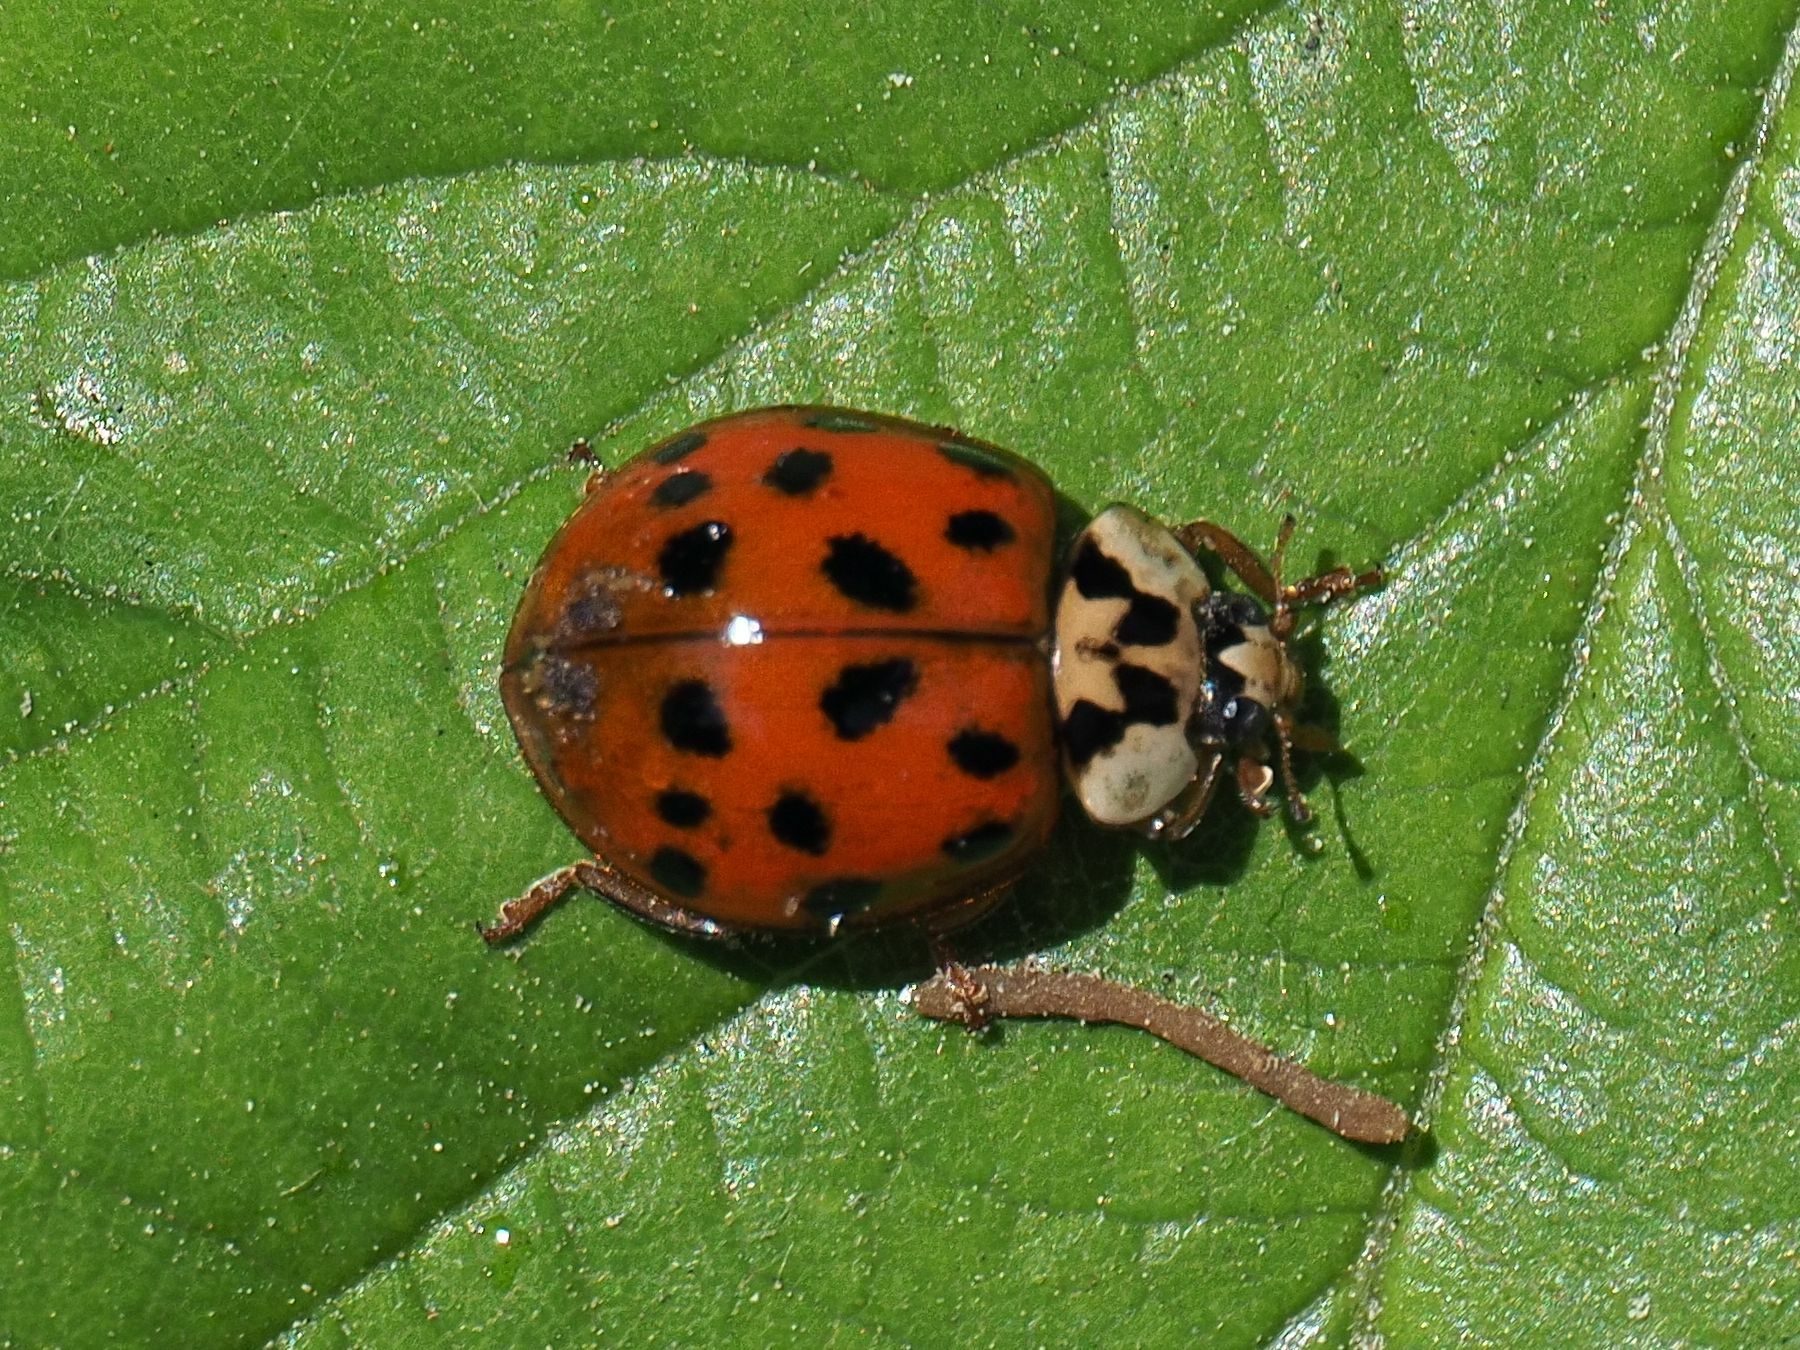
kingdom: Animalia
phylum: Arthropoda
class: Insecta
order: Coleoptera
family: Coccinellidae
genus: Harmonia
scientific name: Harmonia axyridis
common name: Harlequin ladybird
